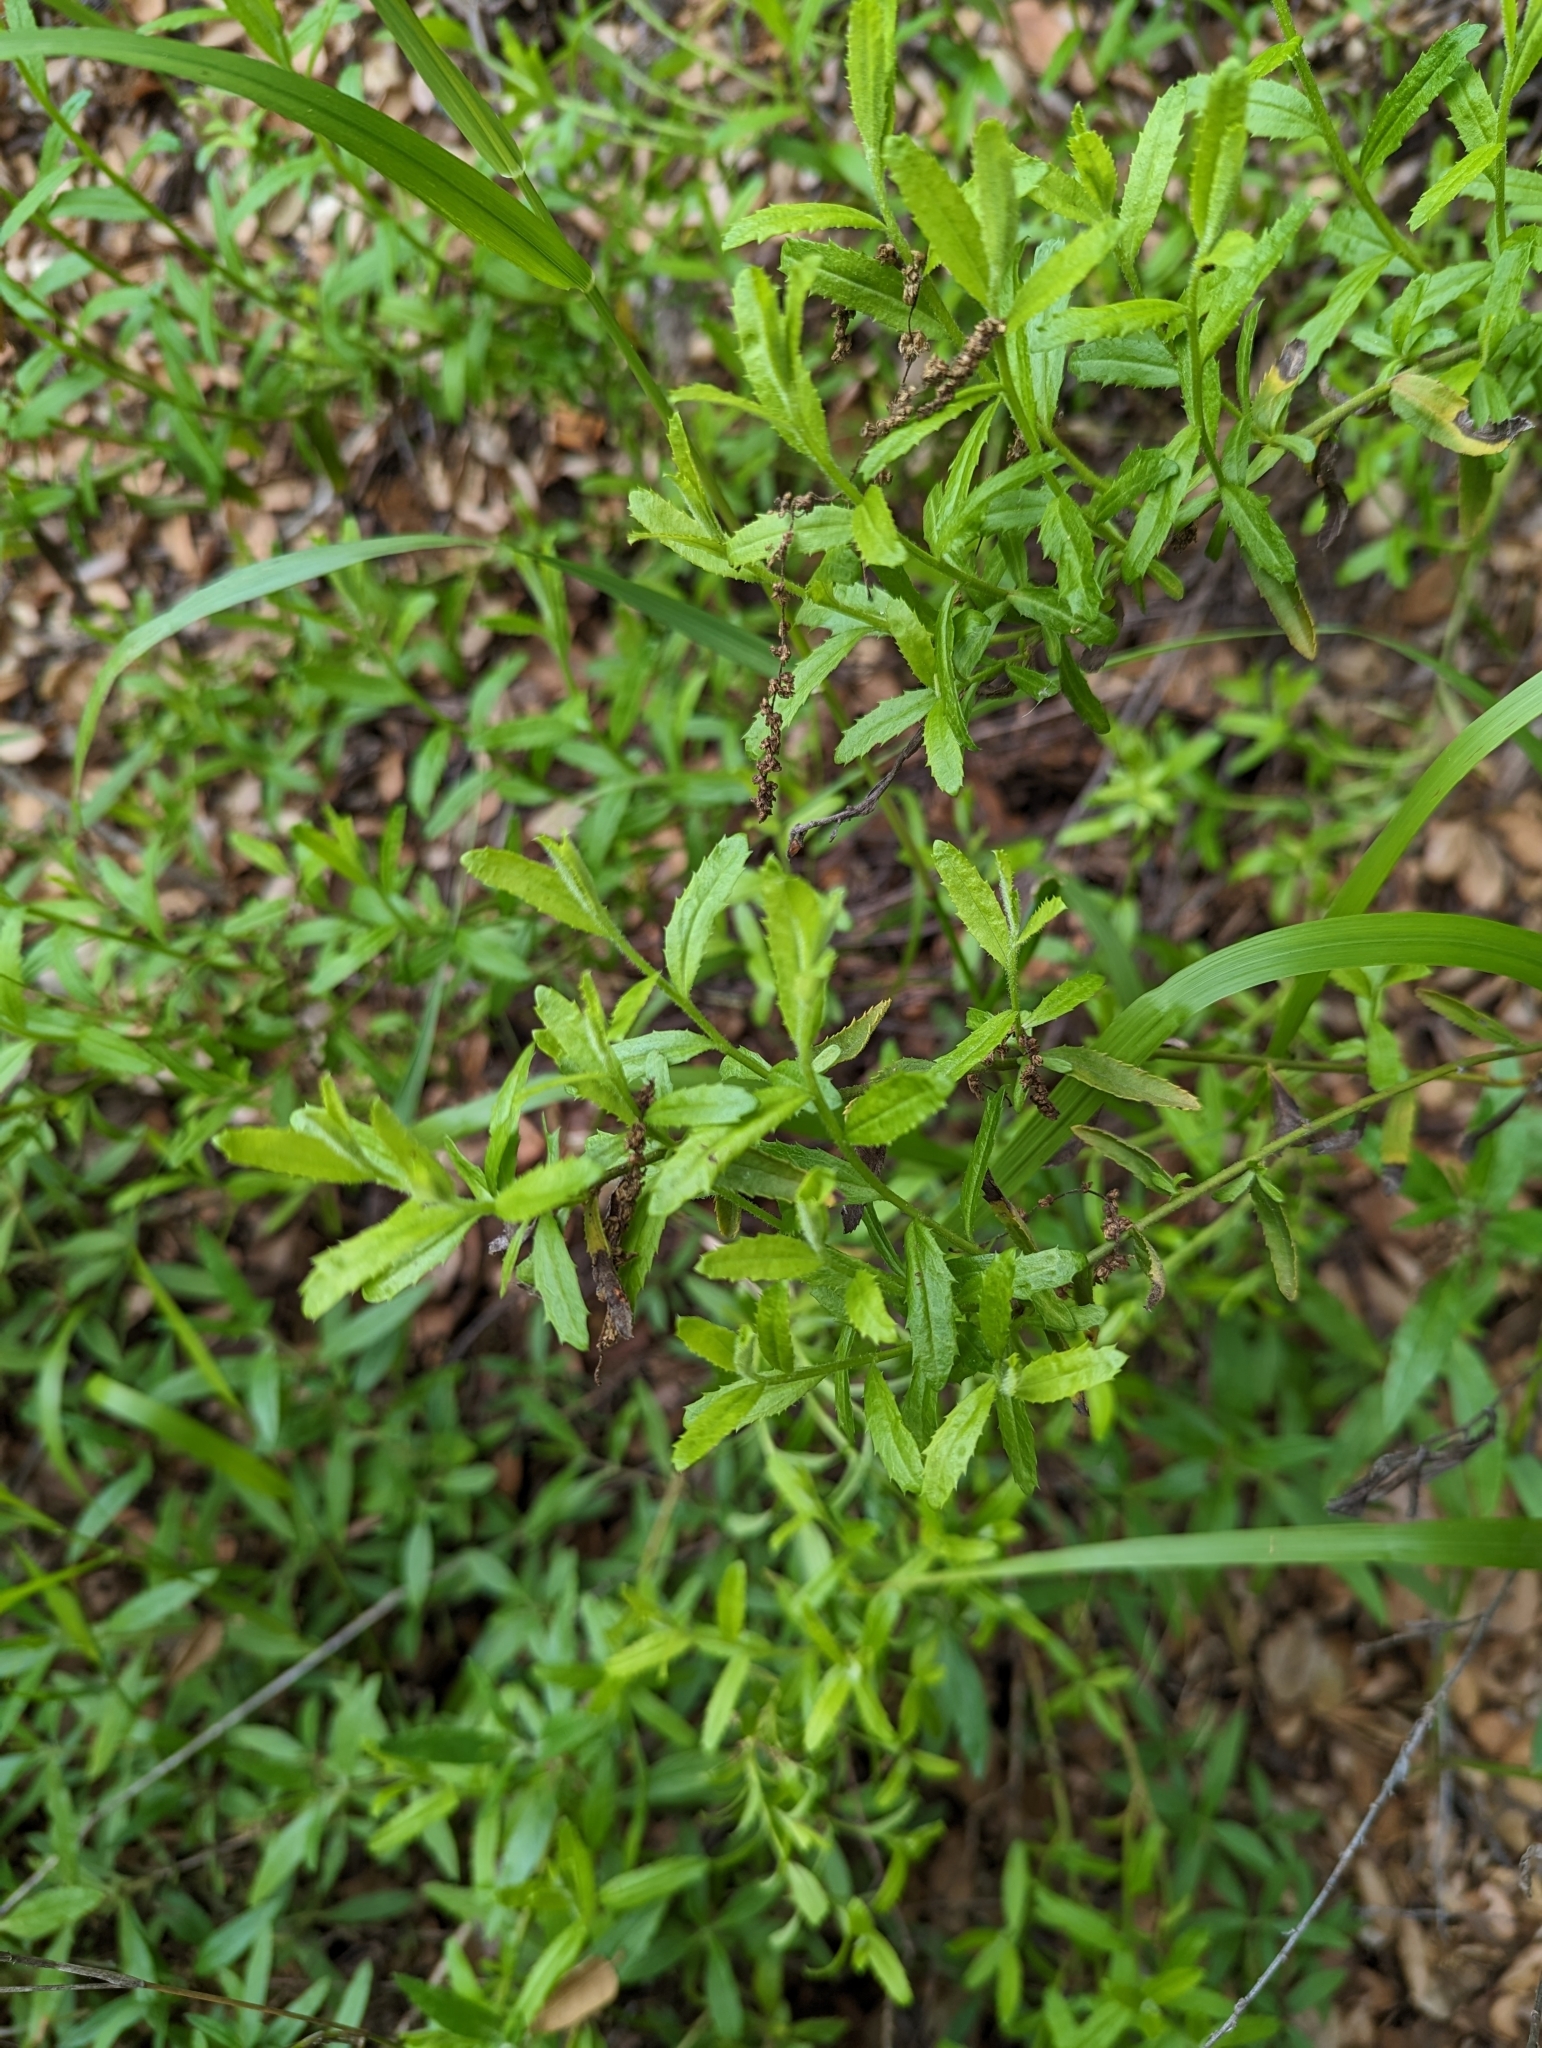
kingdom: Plantae
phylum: Tracheophyta
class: Magnoliopsida
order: Asterales
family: Asteraceae
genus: Baccharis
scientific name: Baccharis plummerae
